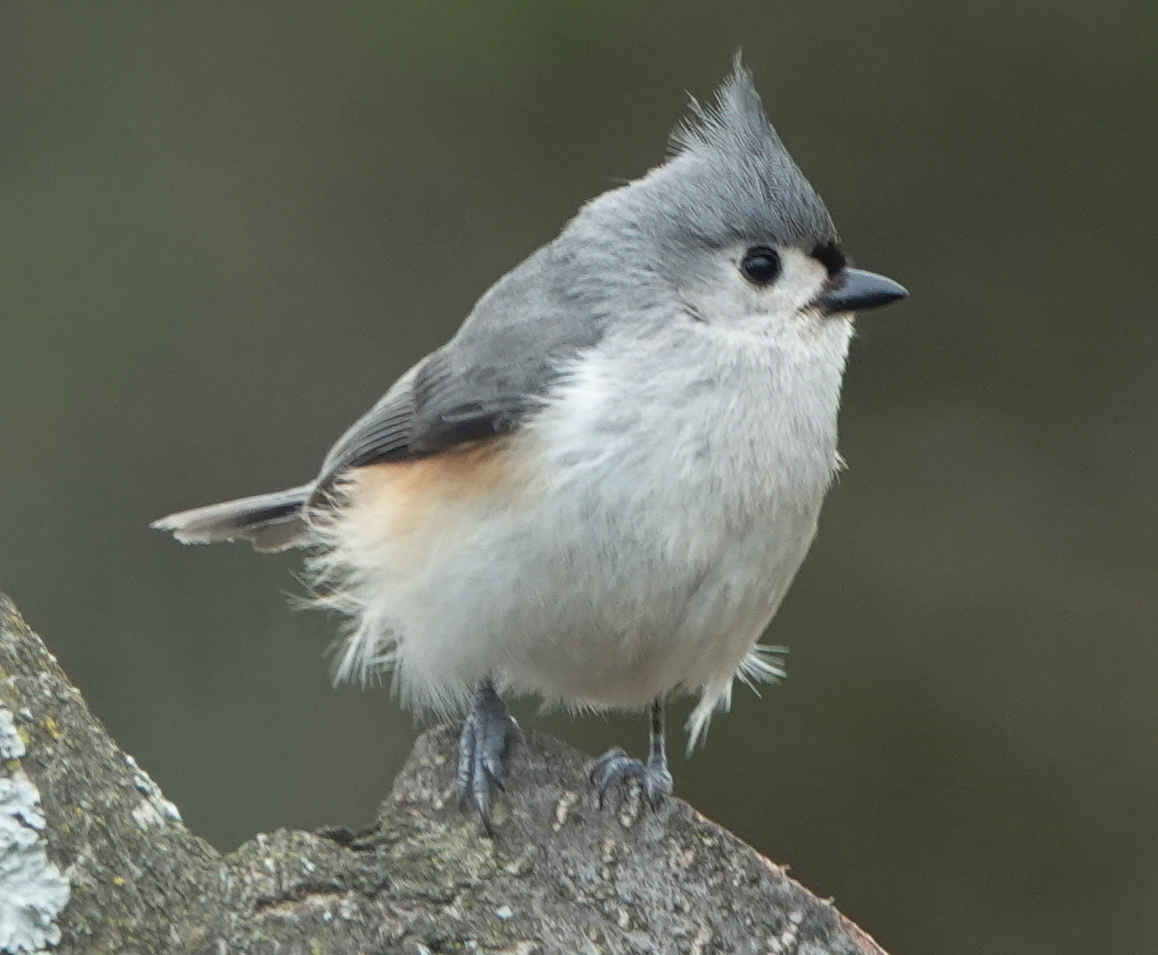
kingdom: Animalia
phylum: Chordata
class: Aves
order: Passeriformes
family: Paridae
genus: Baeolophus
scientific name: Baeolophus bicolor
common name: Tufted titmouse
